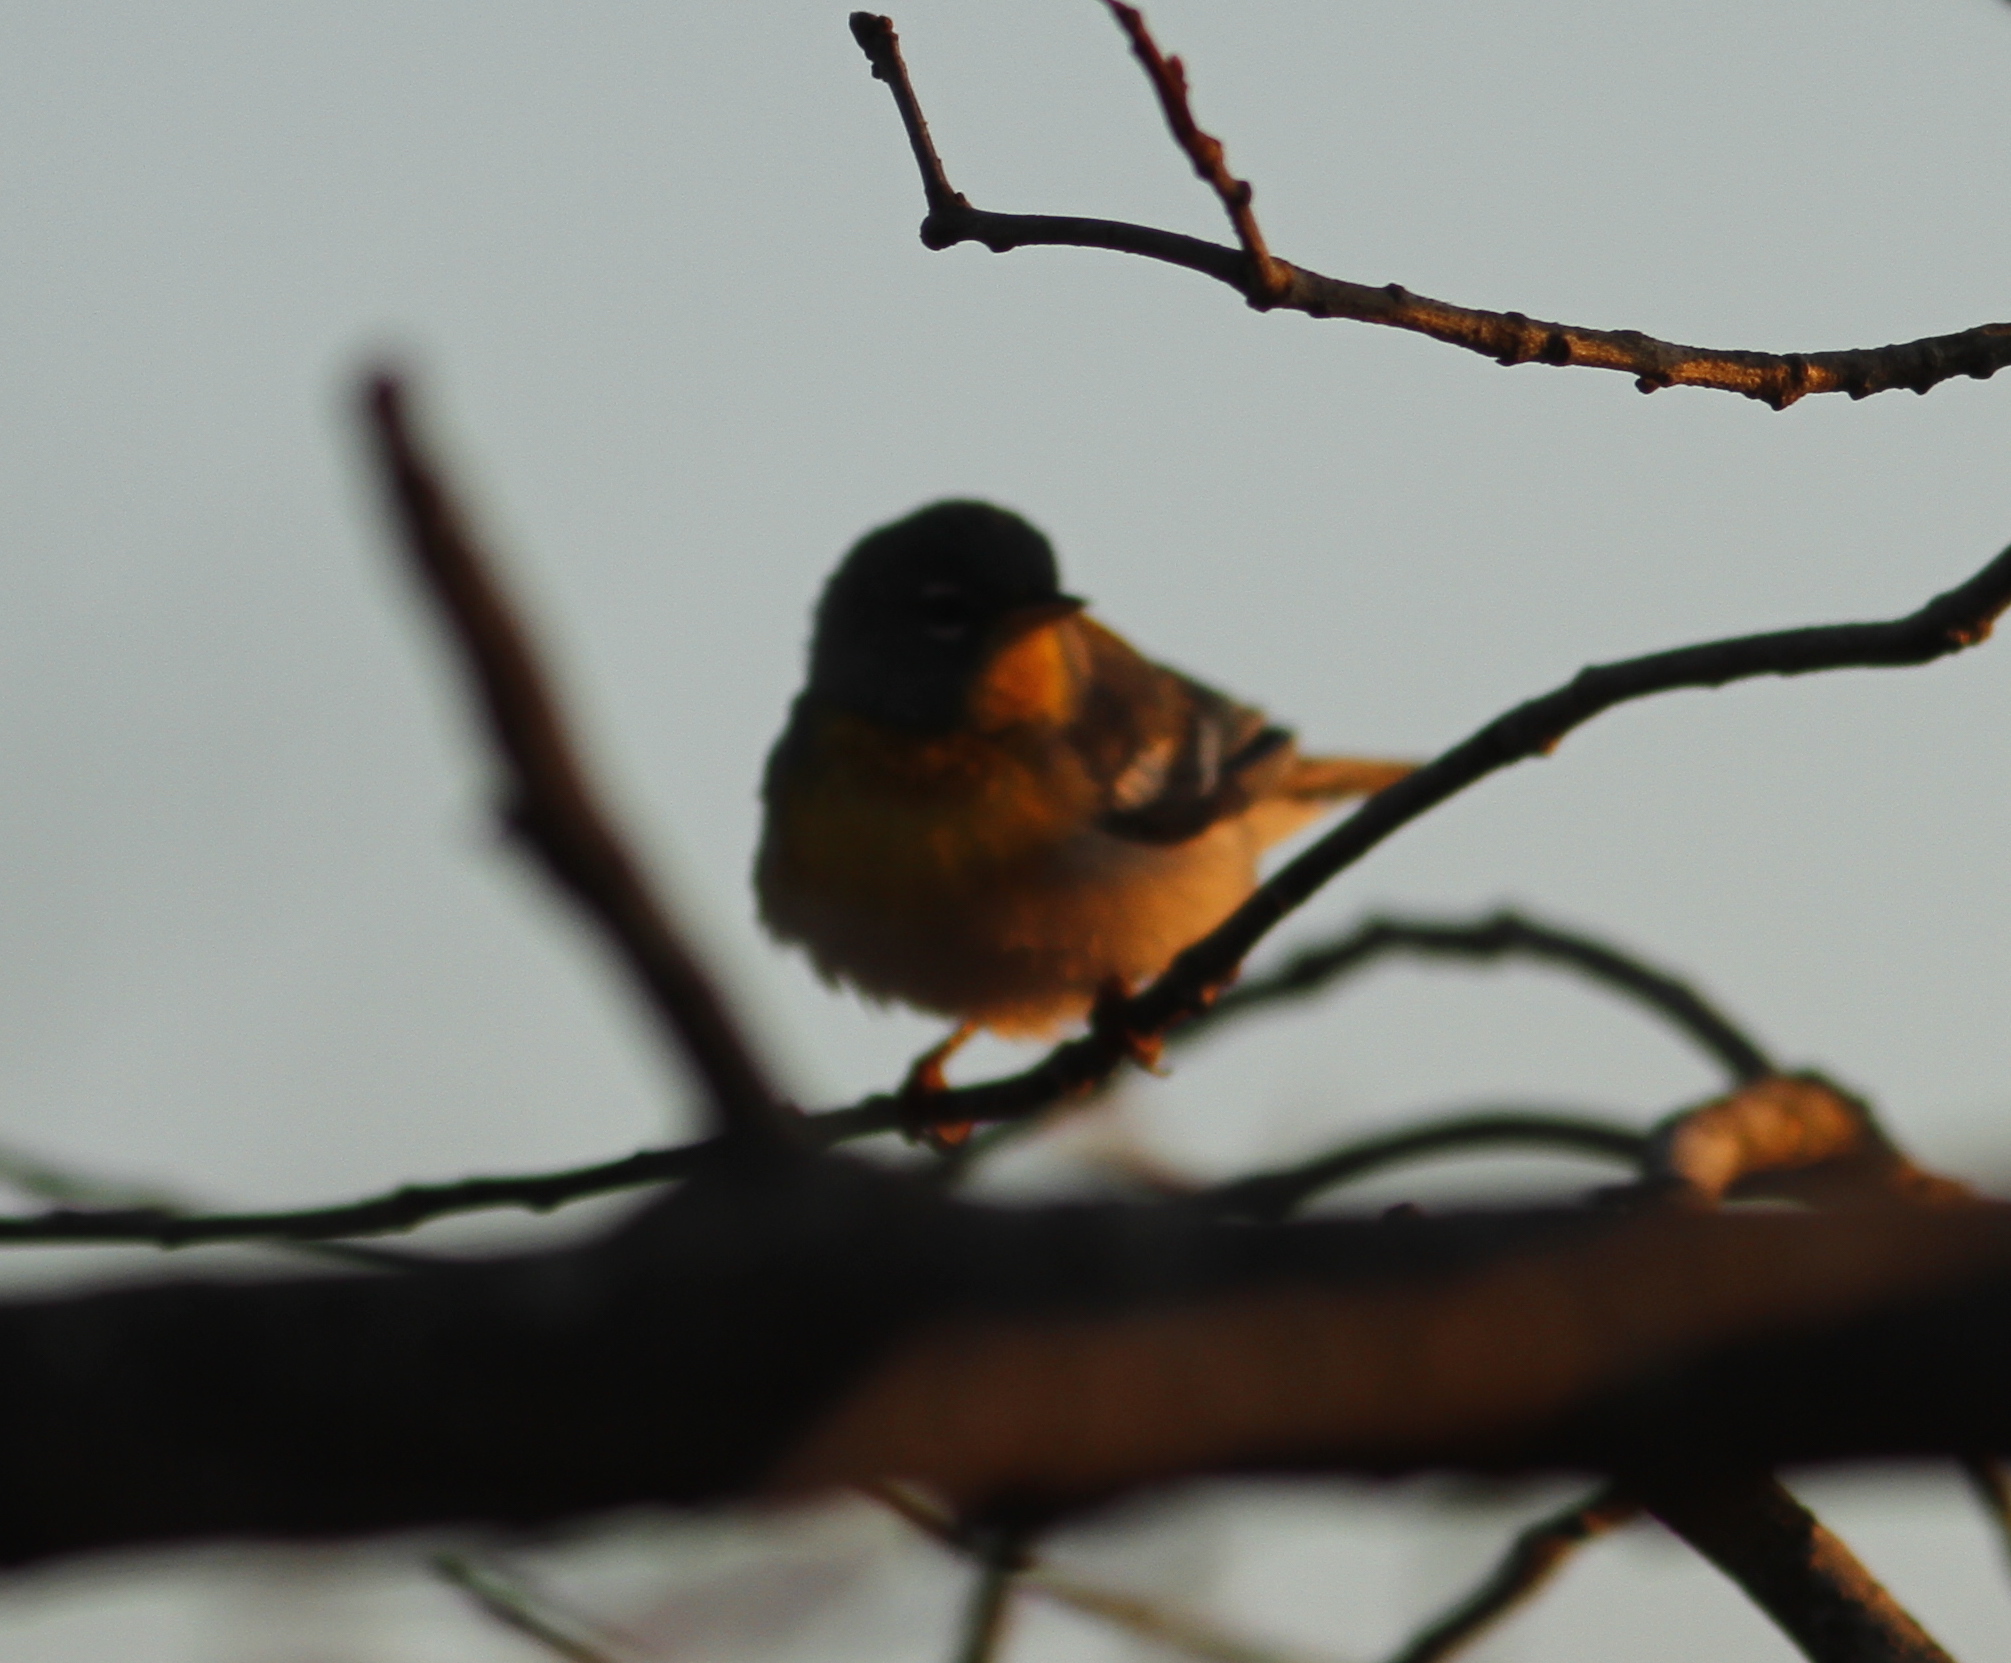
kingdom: Animalia
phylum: Chordata
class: Aves
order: Passeriformes
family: Parulidae
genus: Setophaga
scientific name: Setophaga americana
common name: Northern parula
